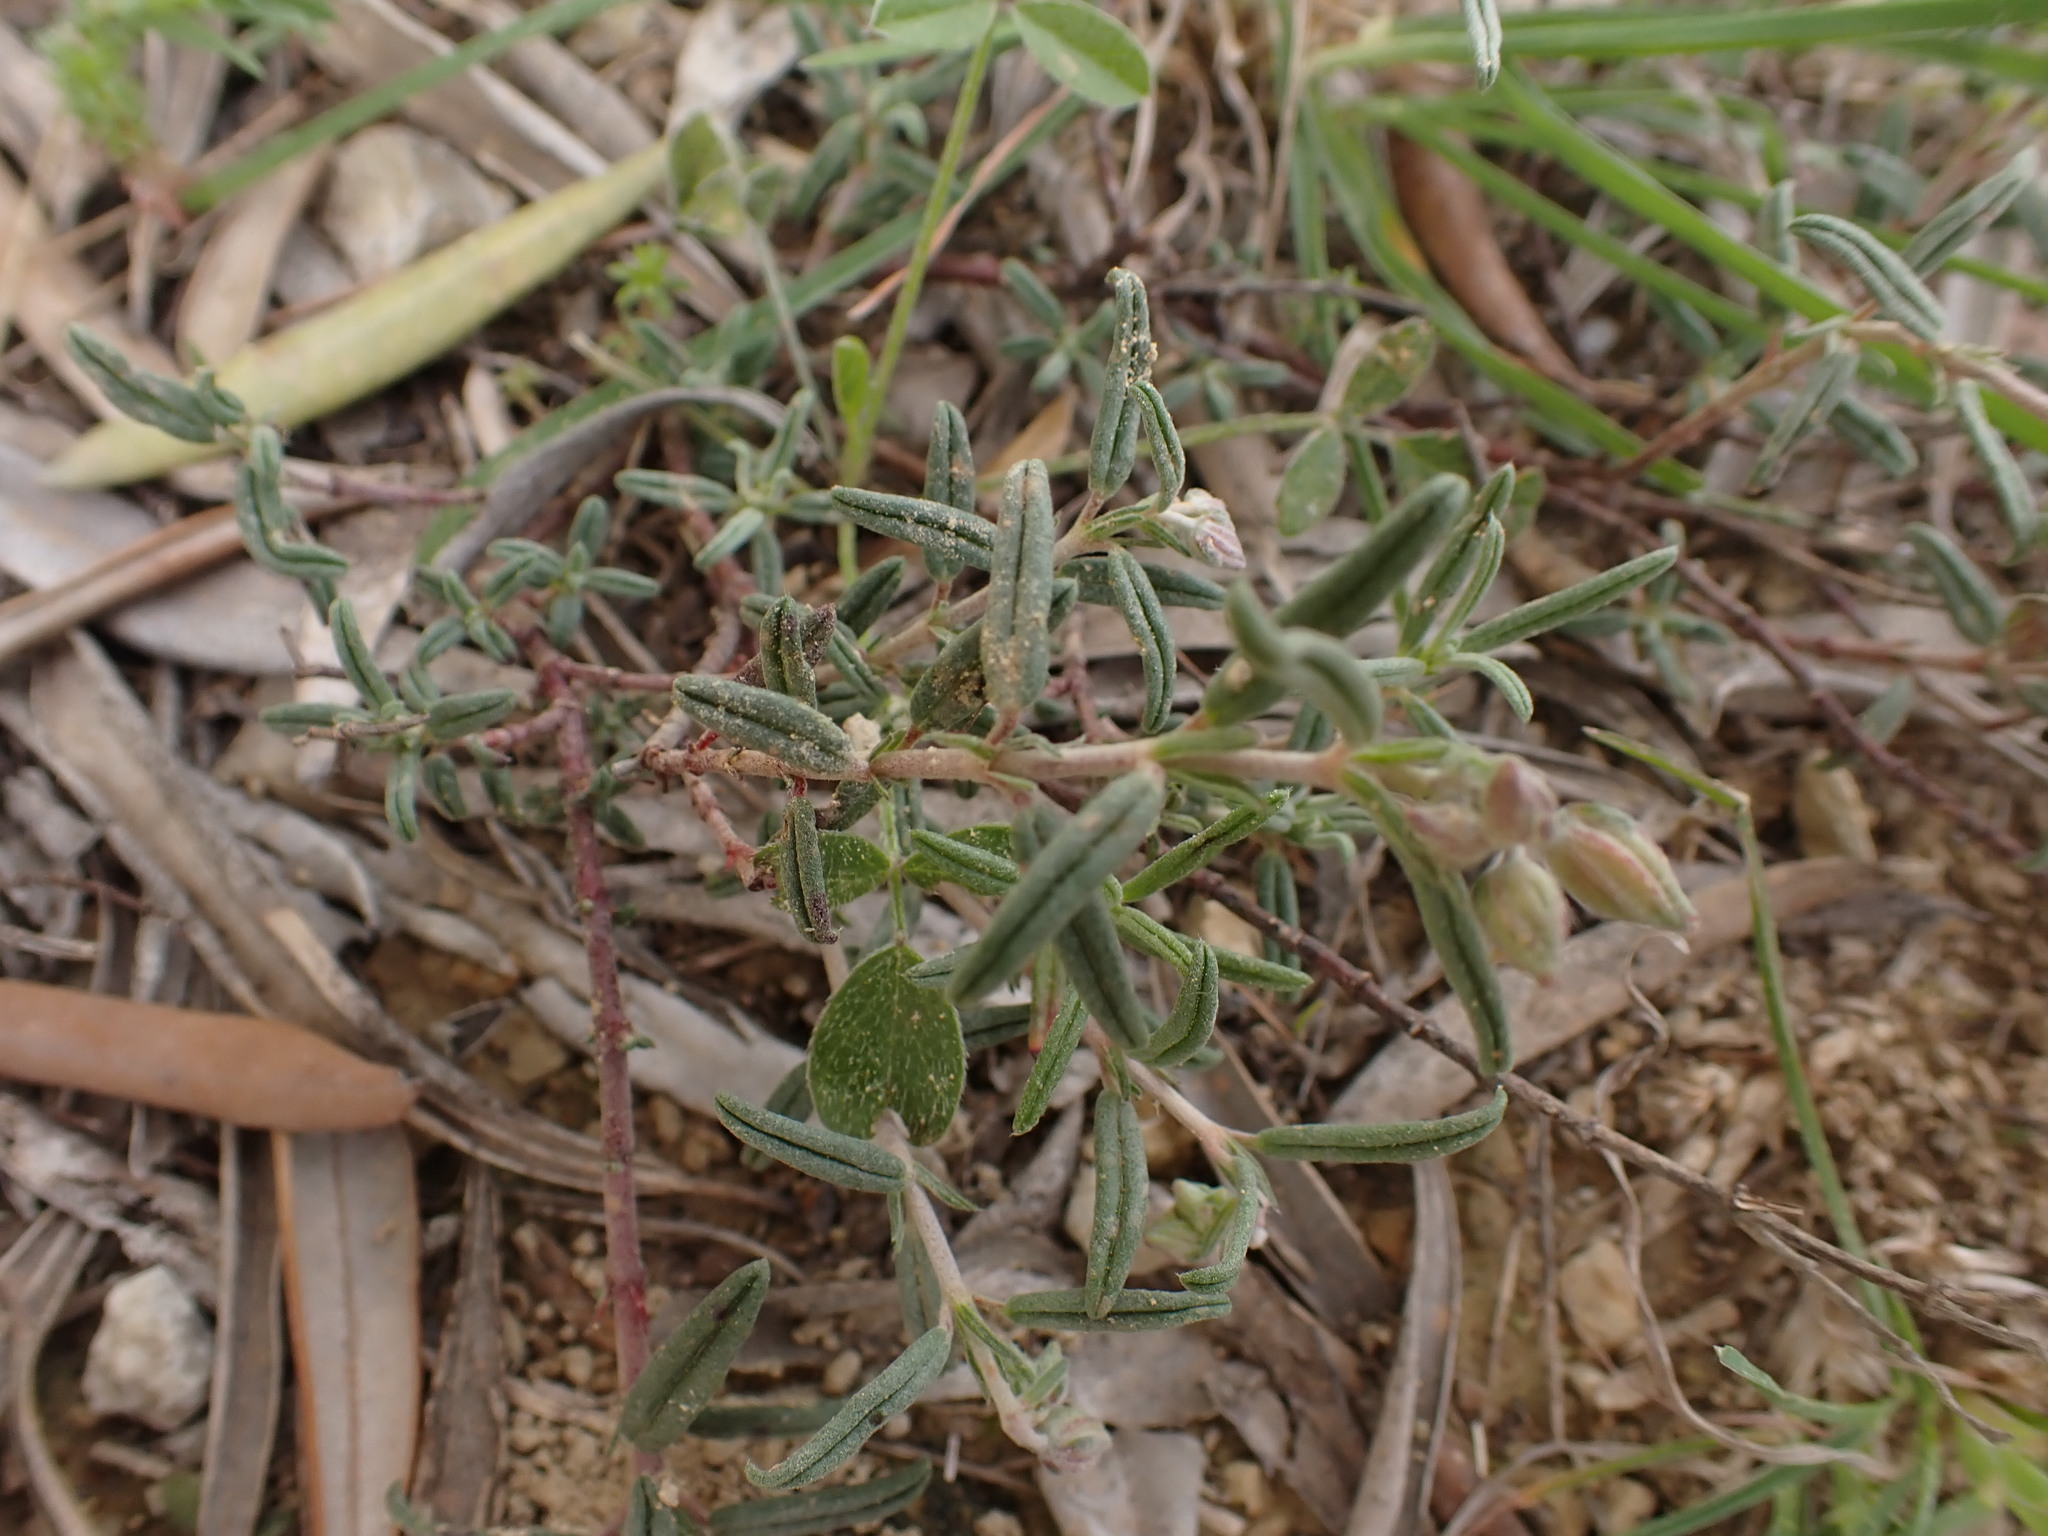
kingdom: Plantae
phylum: Tracheophyta
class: Magnoliopsida
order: Malvales
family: Cistaceae
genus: Helianthemum
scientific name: Helianthemum apenninum
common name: White rock-rose
